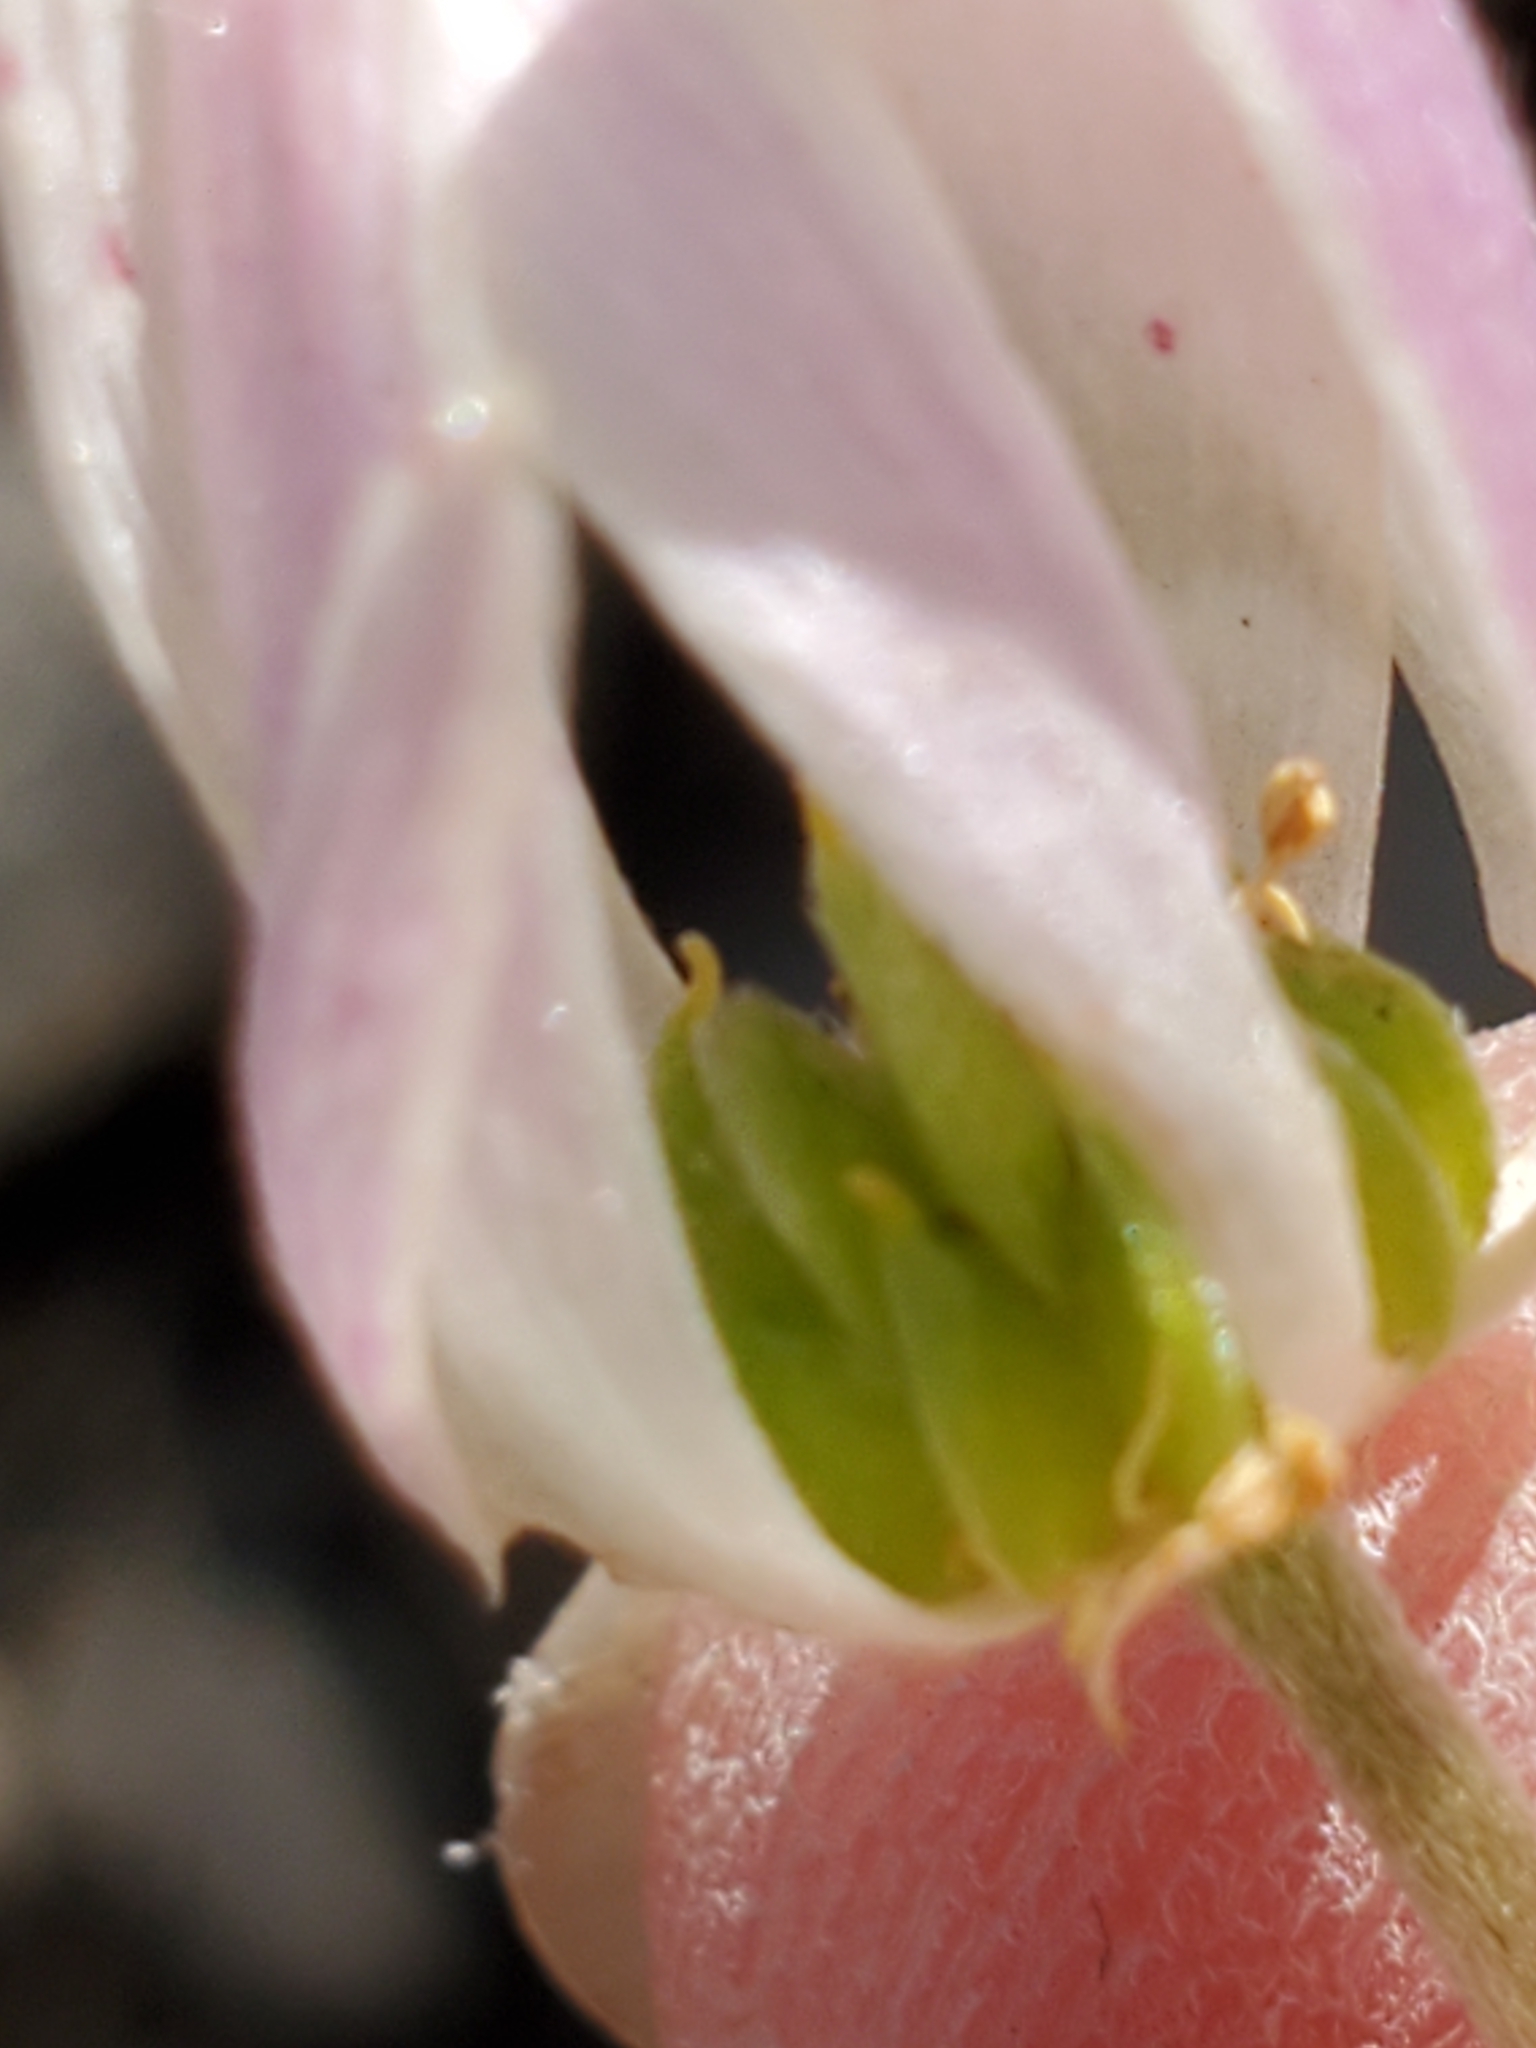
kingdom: Plantae
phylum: Tracheophyta
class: Magnoliopsida
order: Ranunculales
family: Ranunculaceae
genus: Anemone
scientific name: Anemone edwardsiana
